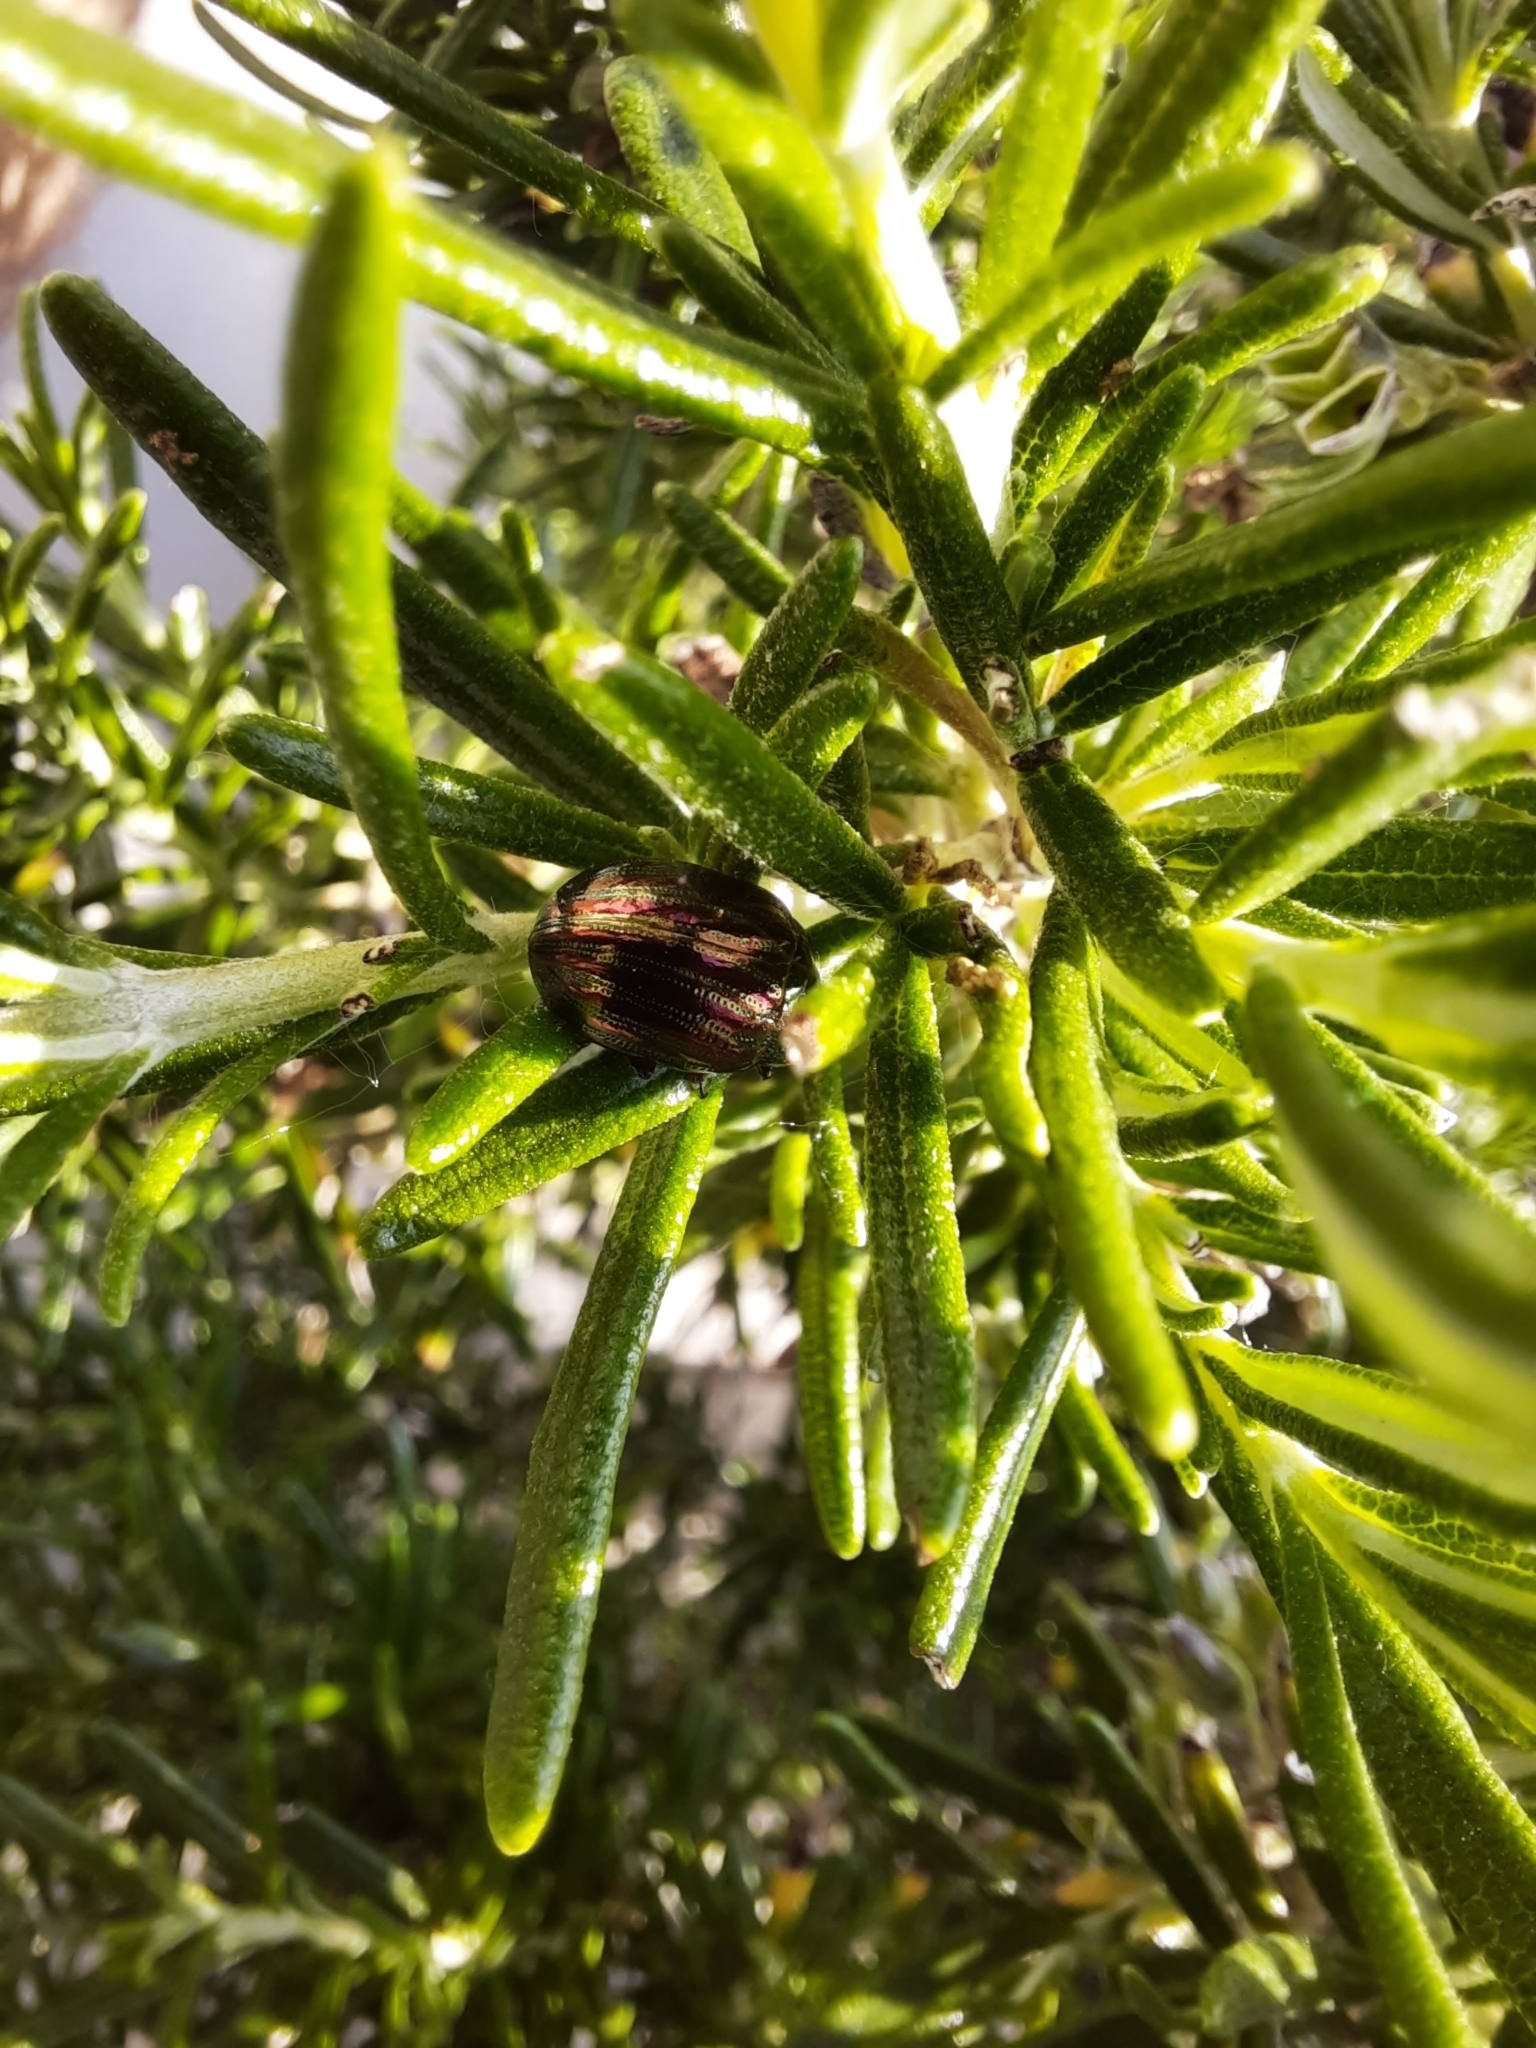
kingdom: Animalia
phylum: Arthropoda
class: Insecta
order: Coleoptera
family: Chrysomelidae
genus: Chrysolina
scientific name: Chrysolina americana
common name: Rosemary beetle
